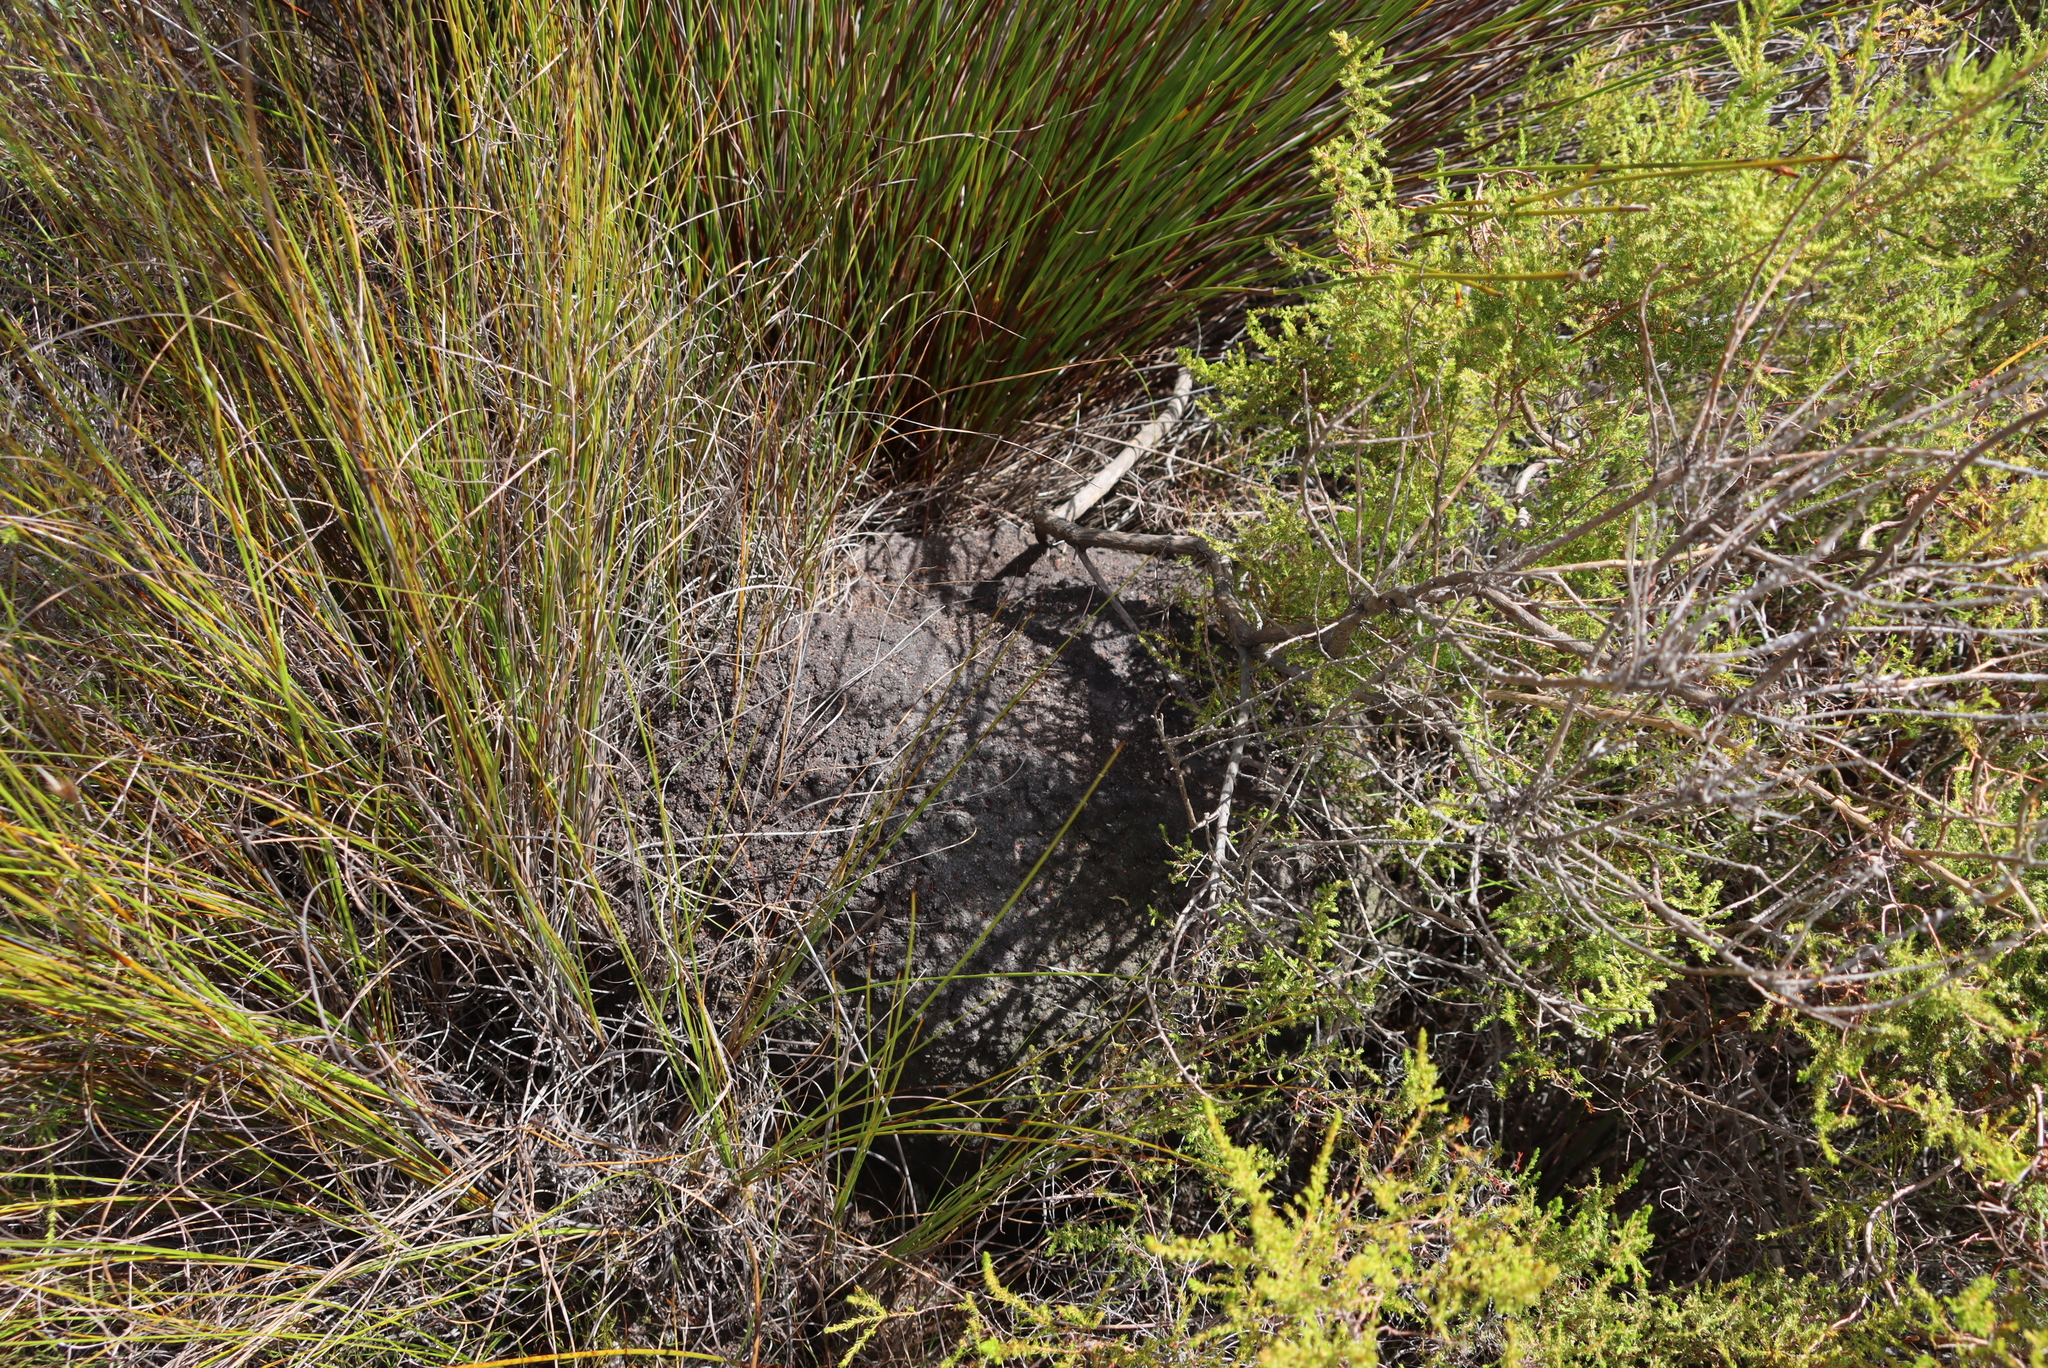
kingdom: Animalia
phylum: Arthropoda
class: Insecta
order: Blattodea
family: Termitidae
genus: Amitermes
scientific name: Amitermes hastatus
